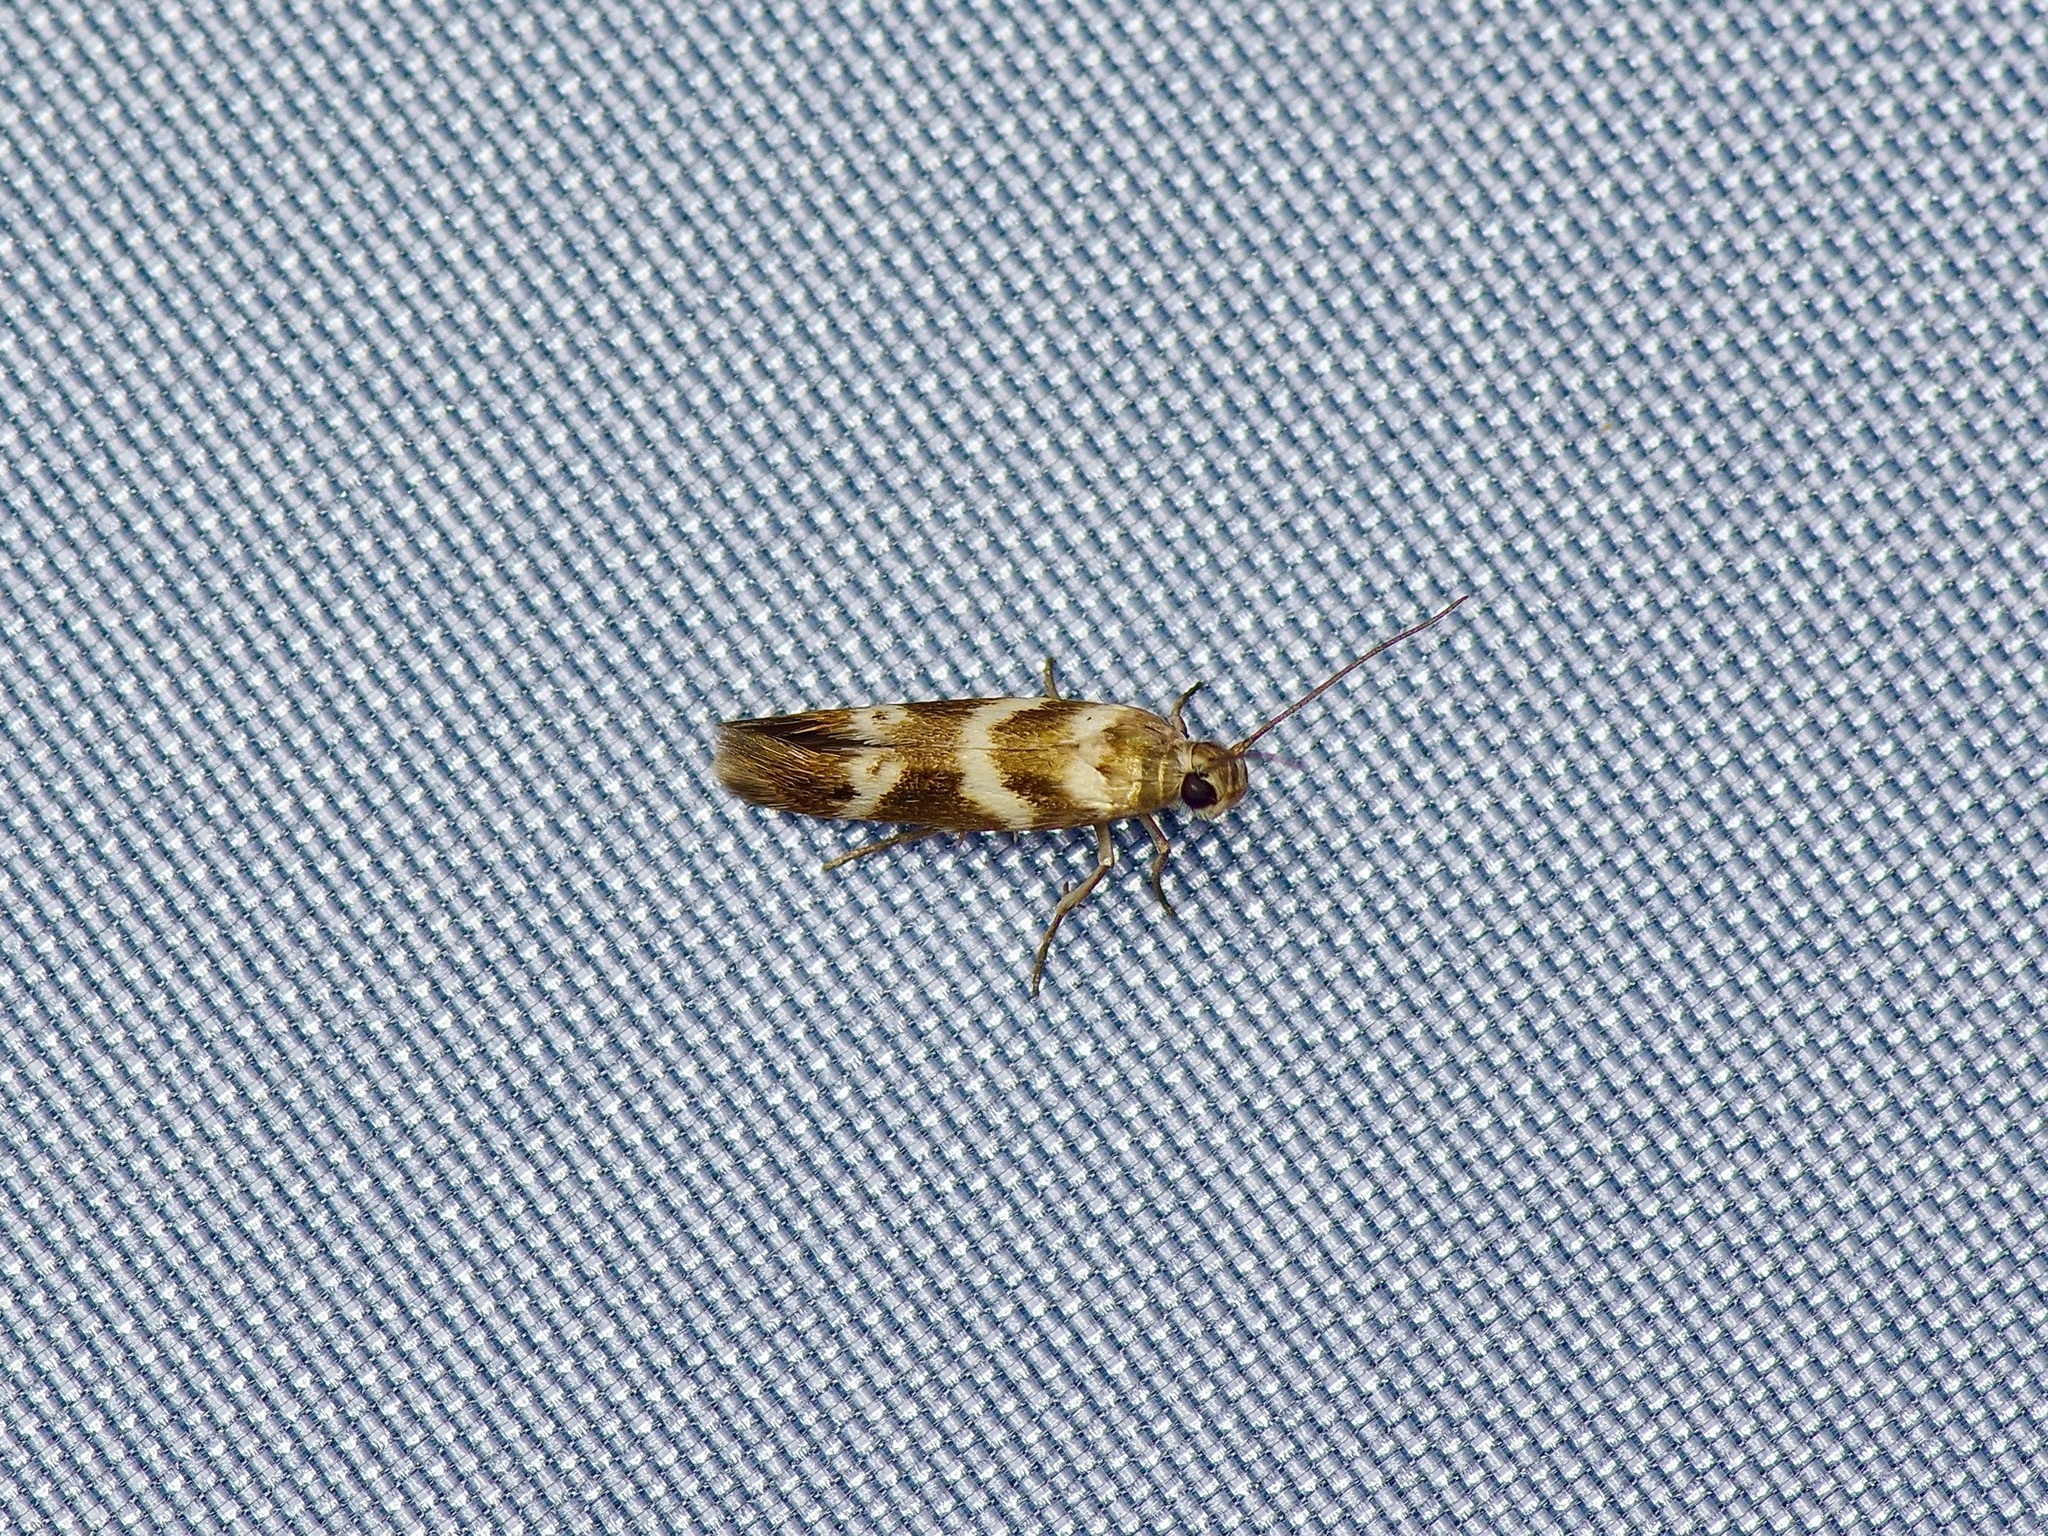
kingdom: Animalia
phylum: Arthropoda
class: Insecta
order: Lepidoptera
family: Scythrididae
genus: Scythris
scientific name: Scythris trivinctella
